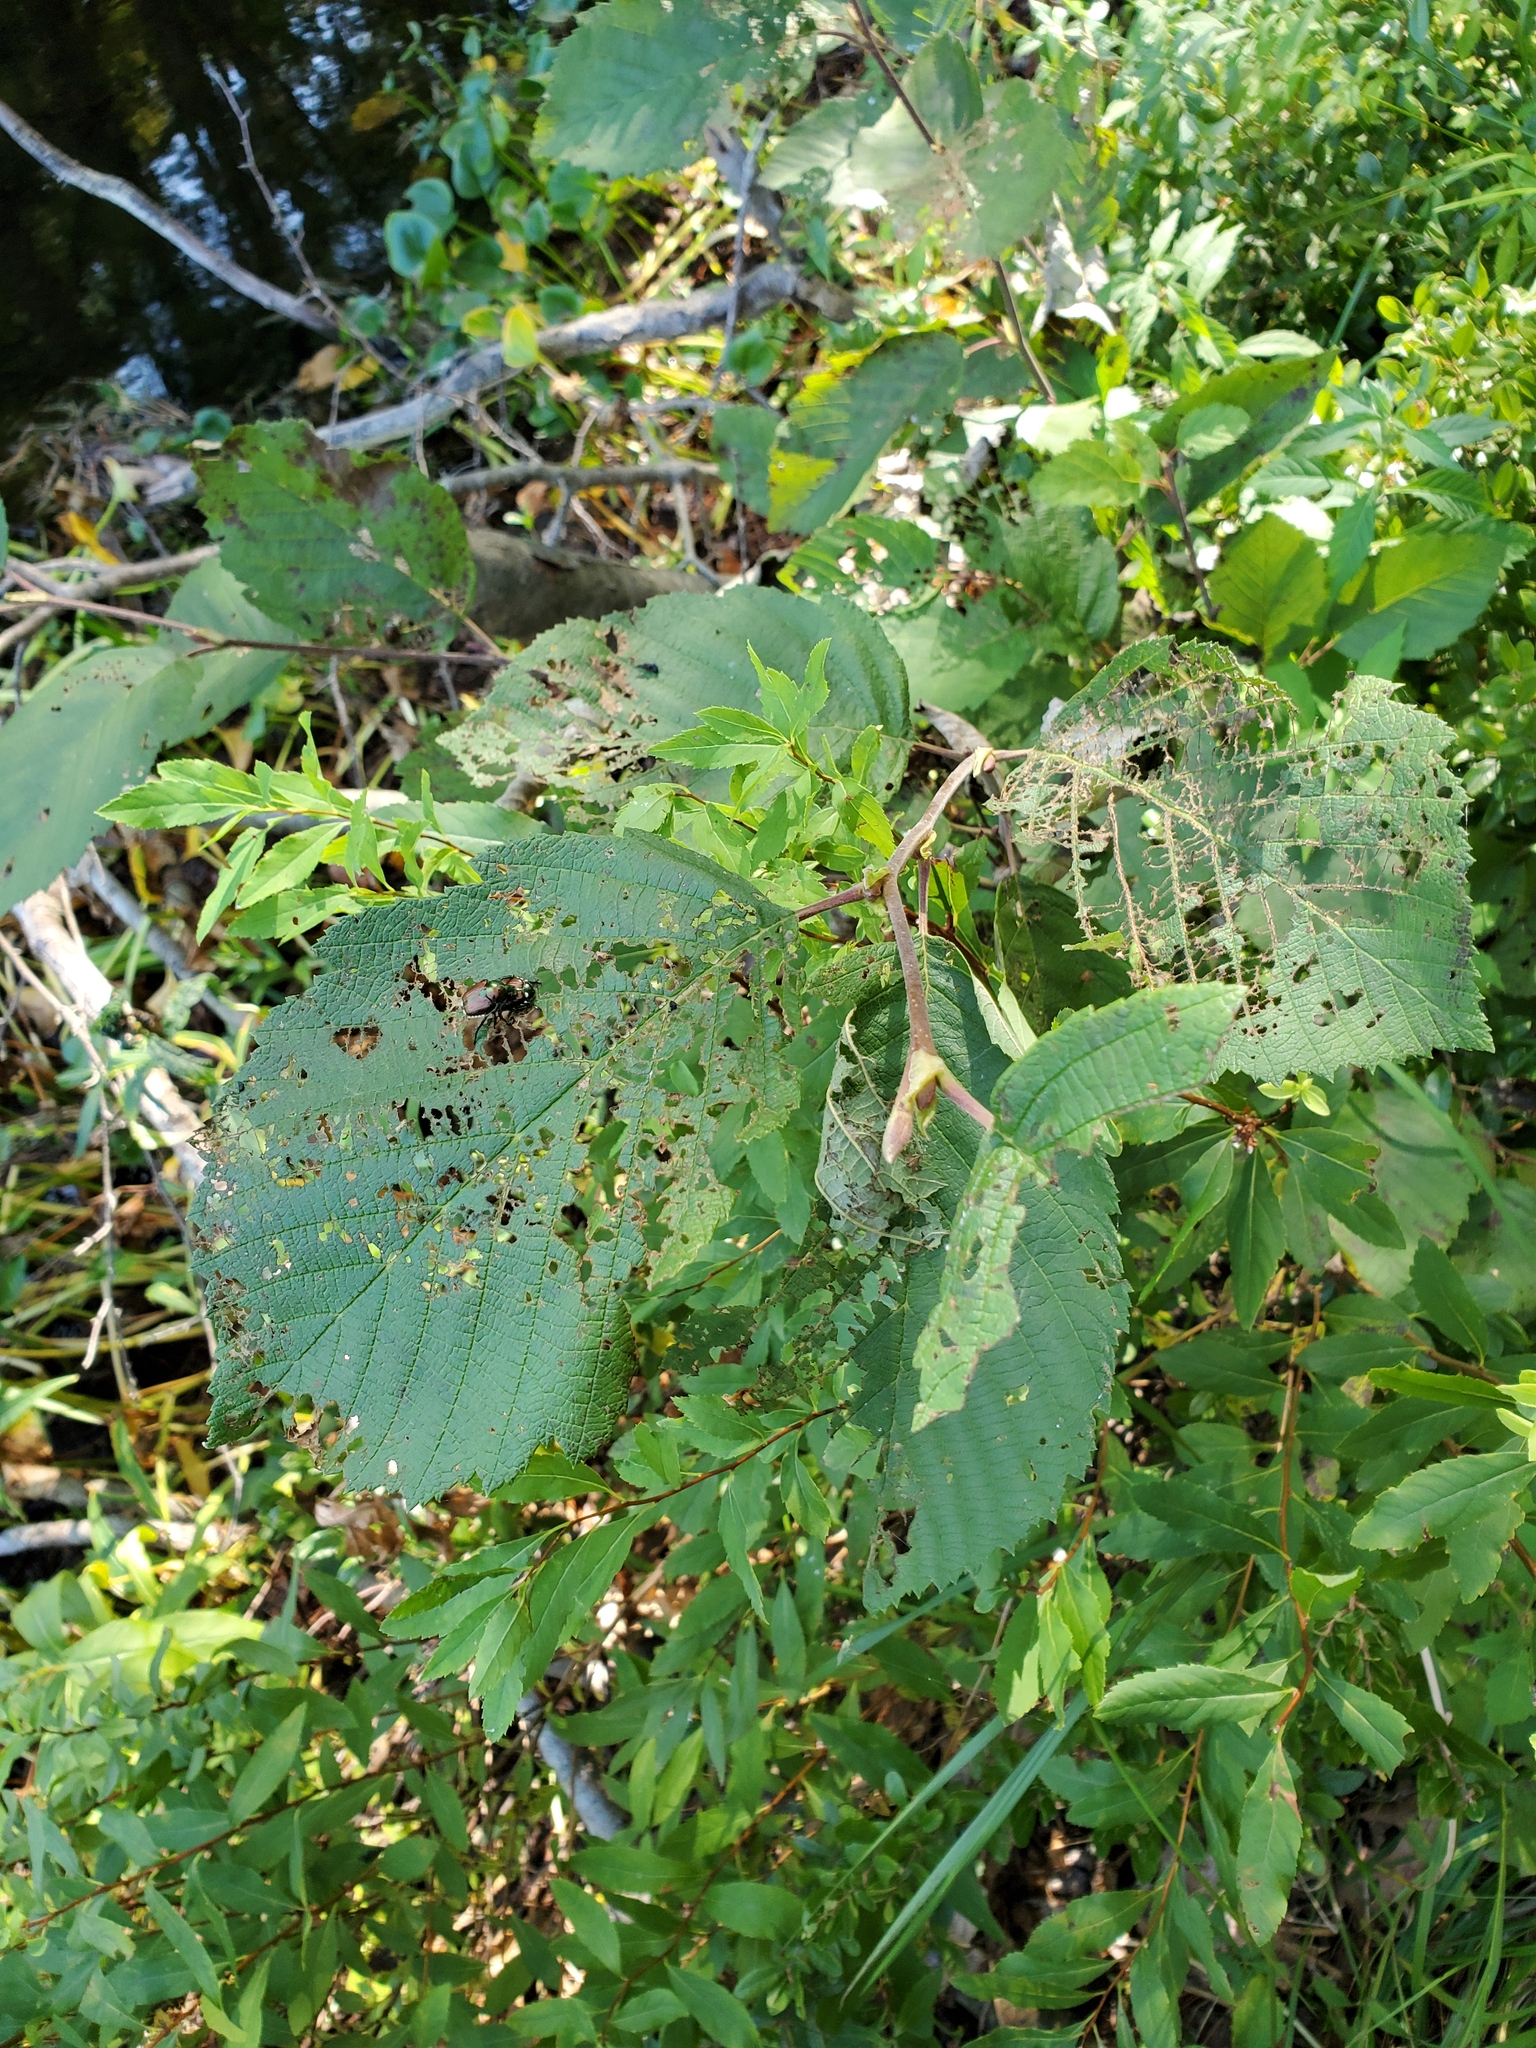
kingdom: Animalia
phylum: Arthropoda
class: Insecta
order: Coleoptera
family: Scarabaeidae
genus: Popillia
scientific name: Popillia japonica
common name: Japanese beetle
